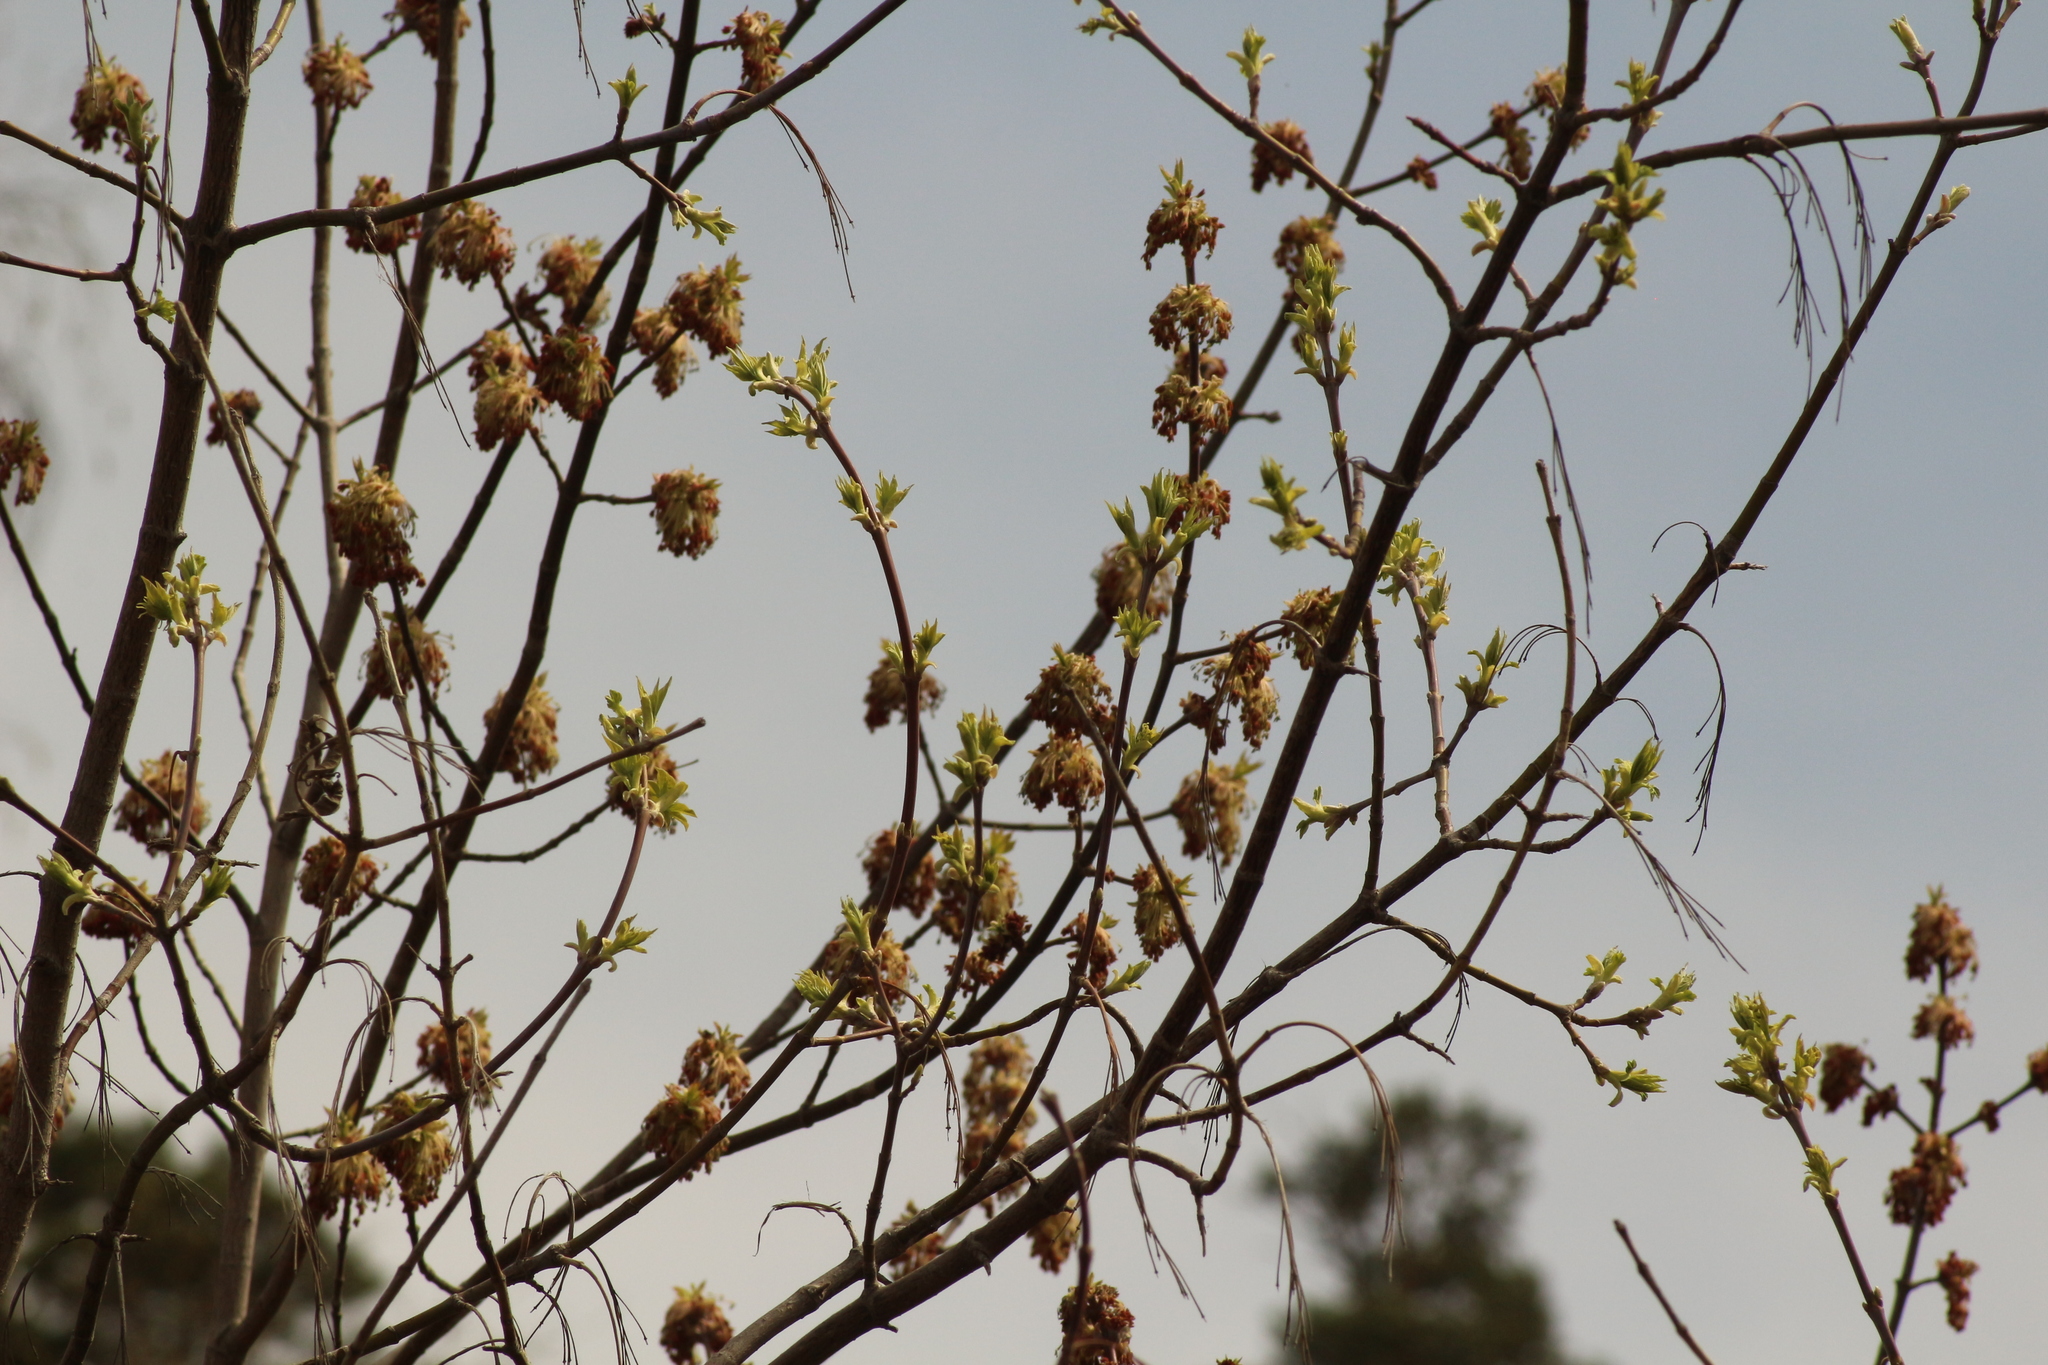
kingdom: Plantae
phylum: Tracheophyta
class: Magnoliopsida
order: Sapindales
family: Sapindaceae
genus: Acer
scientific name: Acer negundo
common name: Ashleaf maple
